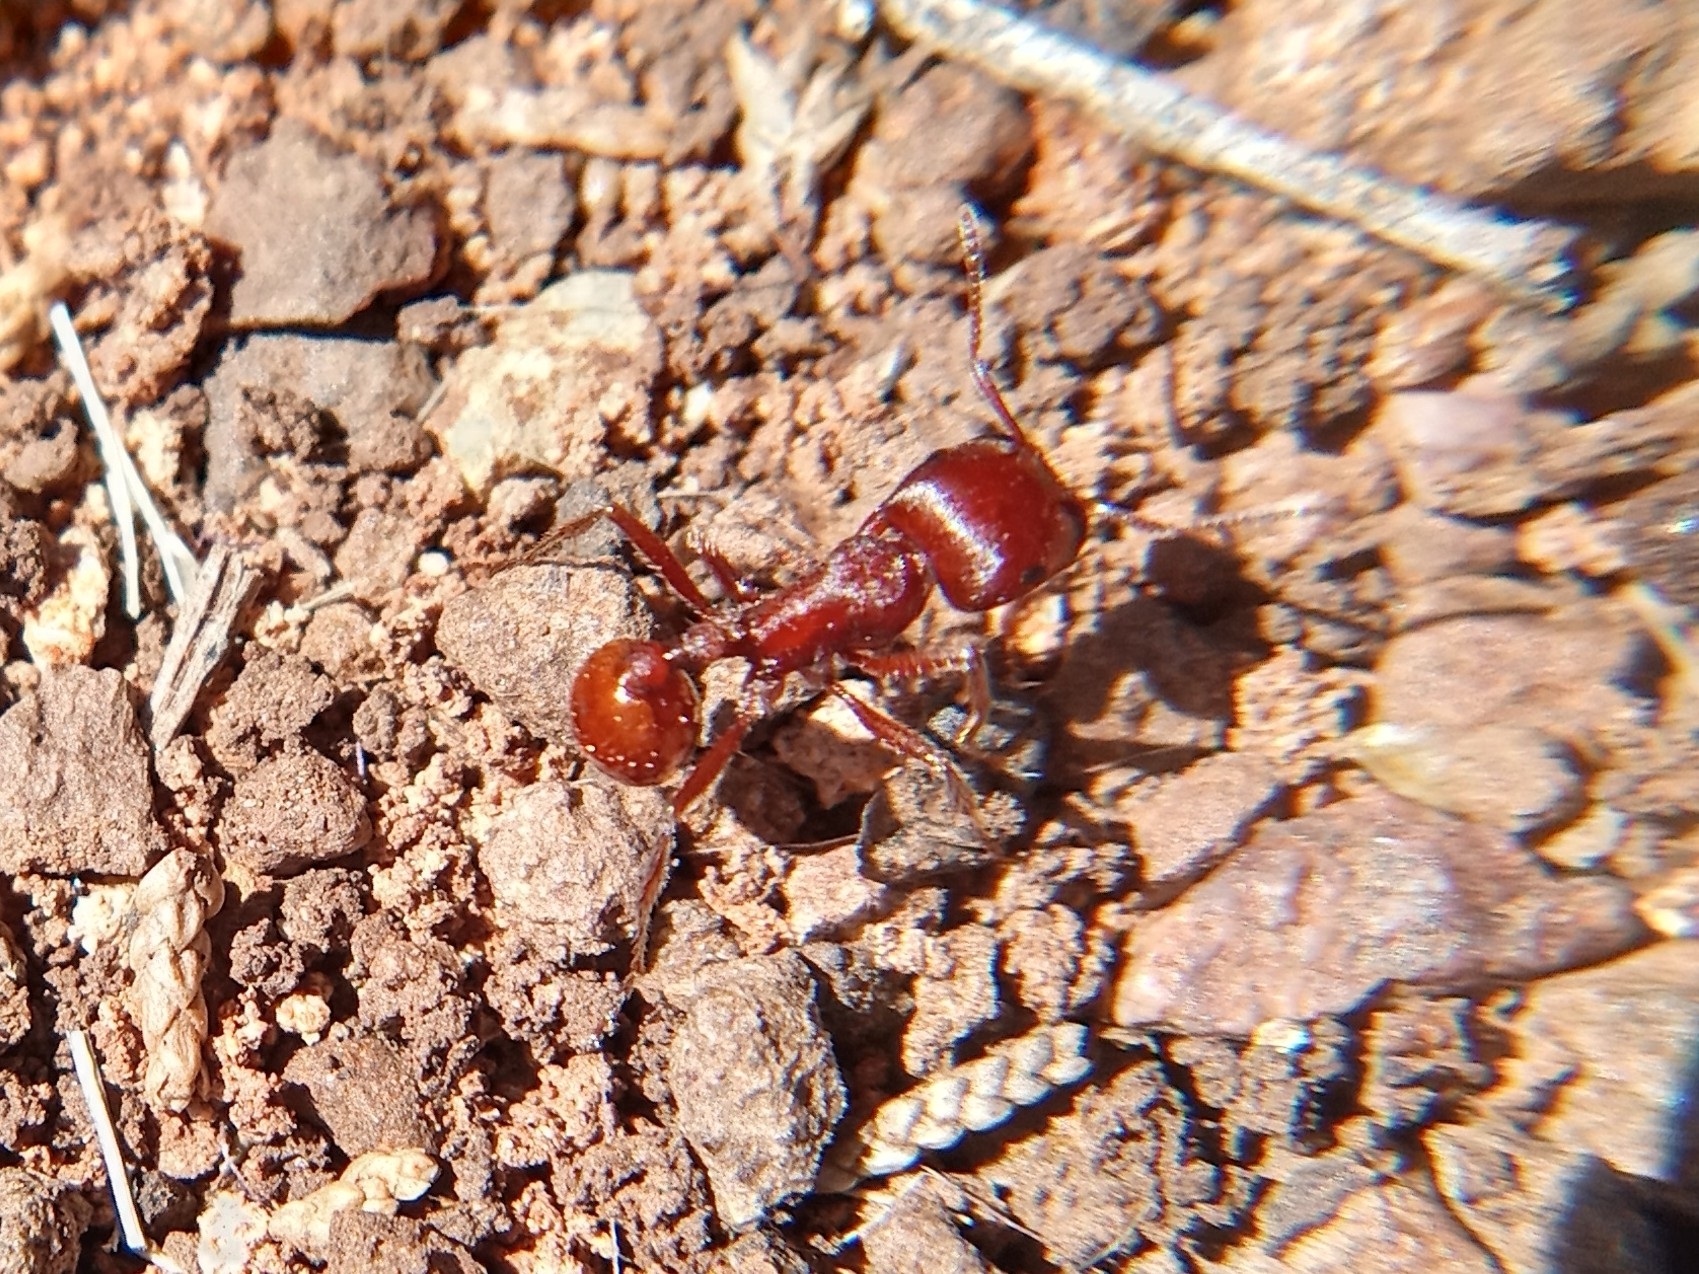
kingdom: Animalia
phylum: Arthropoda
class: Insecta
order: Hymenoptera
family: Formicidae
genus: Pogonomyrmex
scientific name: Pogonomyrmex barbatus
